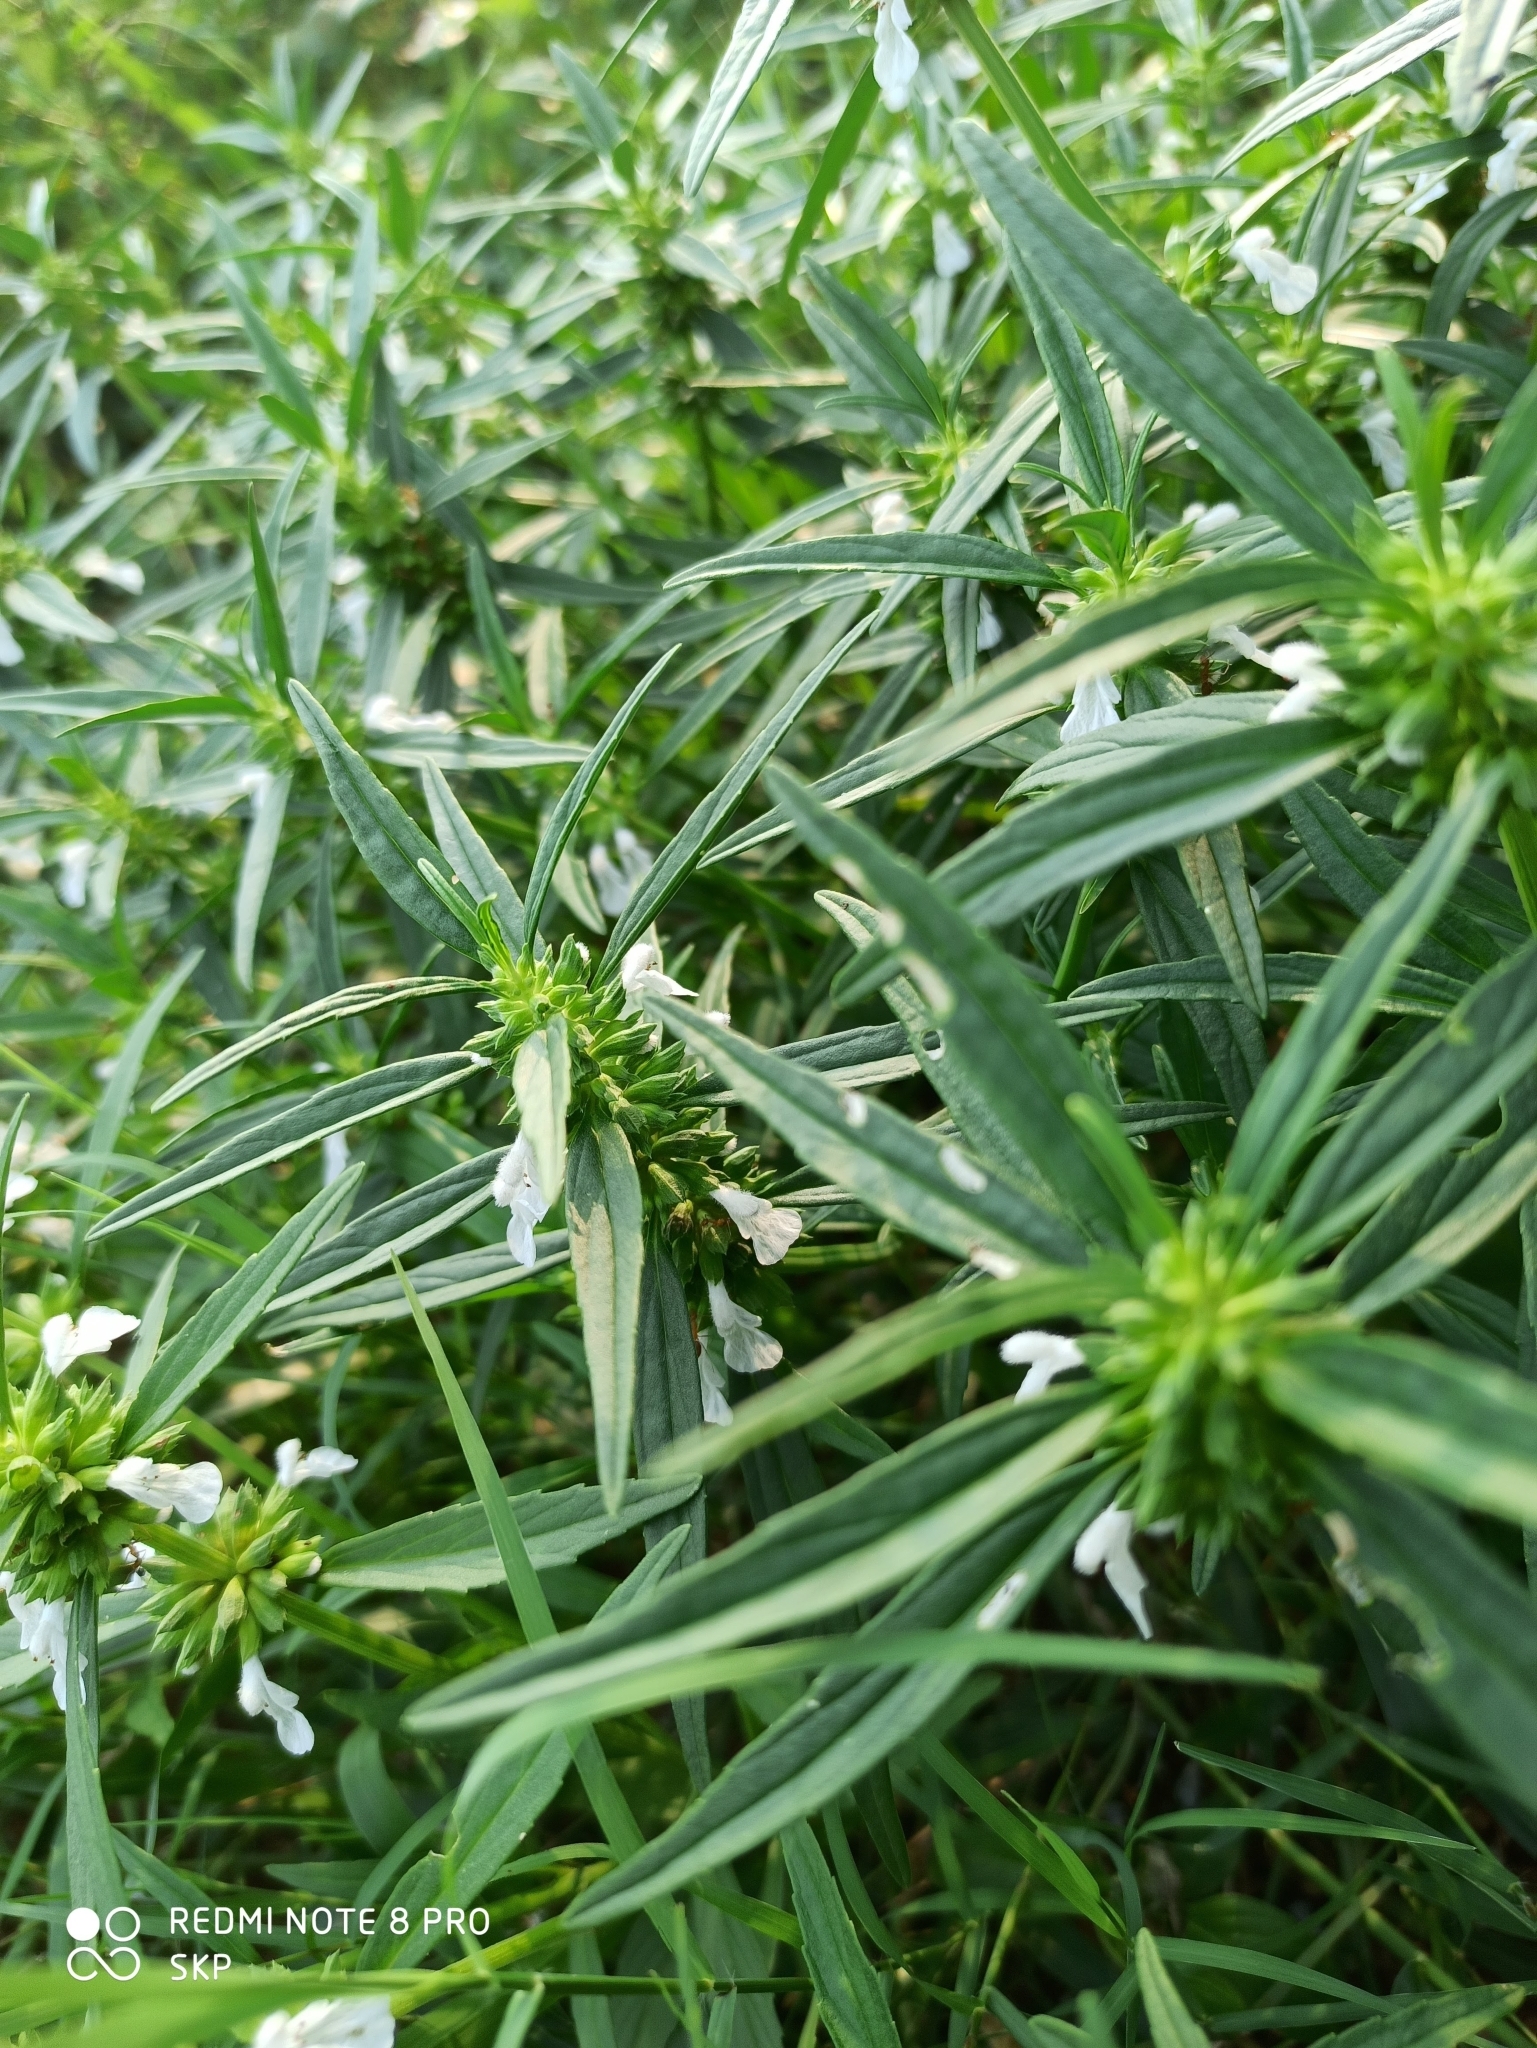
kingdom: Plantae
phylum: Tracheophyta
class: Magnoliopsida
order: Lamiales
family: Lamiaceae
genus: Leucas
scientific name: Leucas aspera
